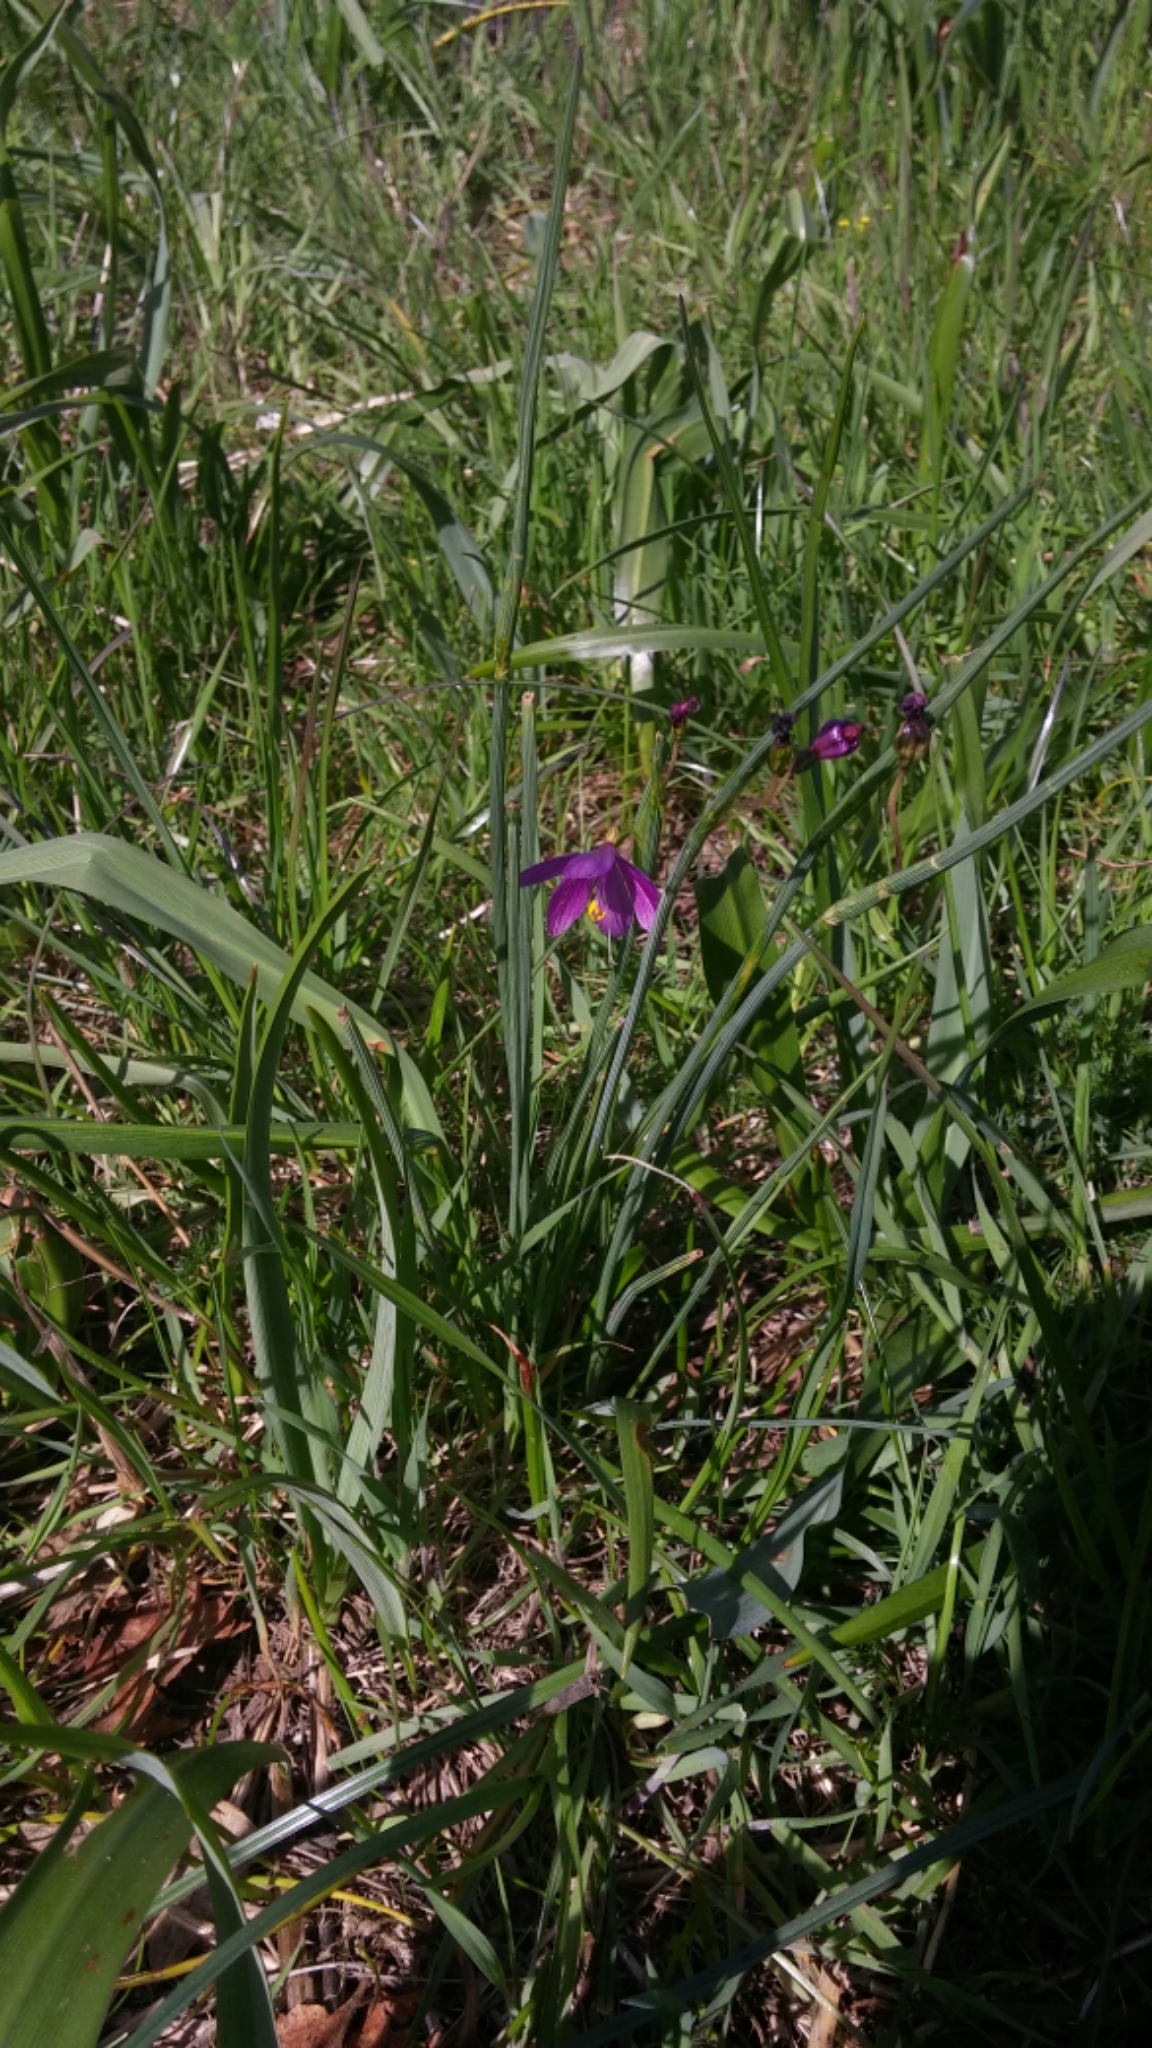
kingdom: Plantae
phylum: Tracheophyta
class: Liliopsida
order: Asparagales
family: Iridaceae
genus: Olsynium
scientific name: Olsynium douglasii
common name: Douglas' grasswidow
